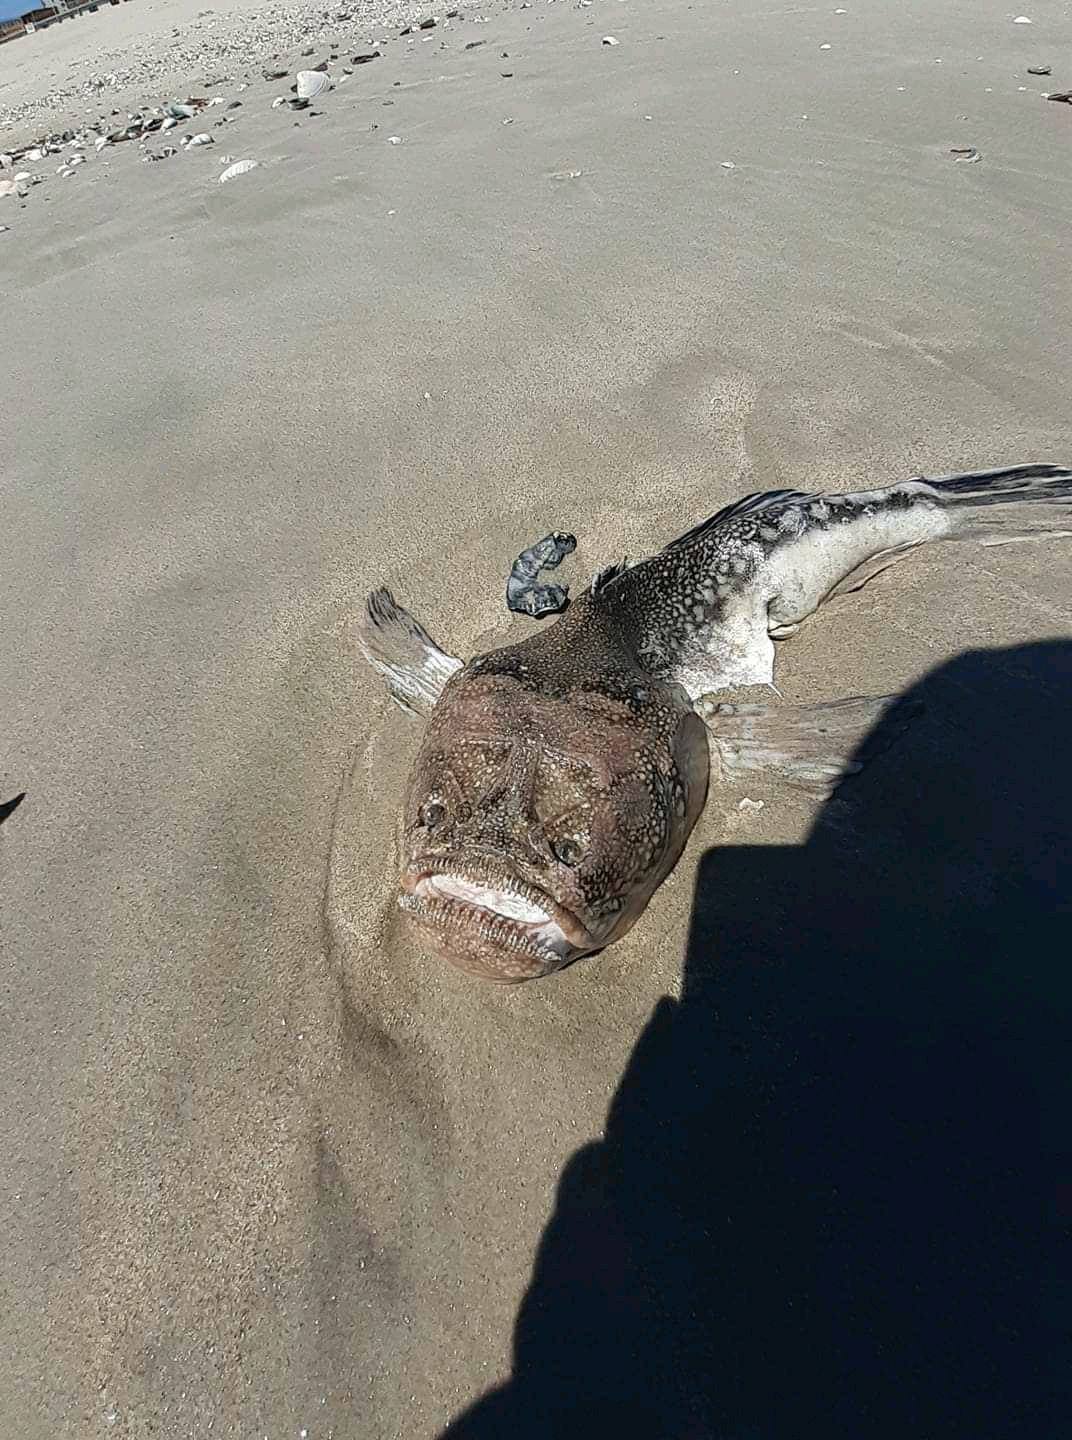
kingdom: Animalia
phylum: Chordata
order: Perciformes
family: Uranoscopidae
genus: Astroscopus
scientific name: Astroscopus guttatus
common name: Northern stargazer
